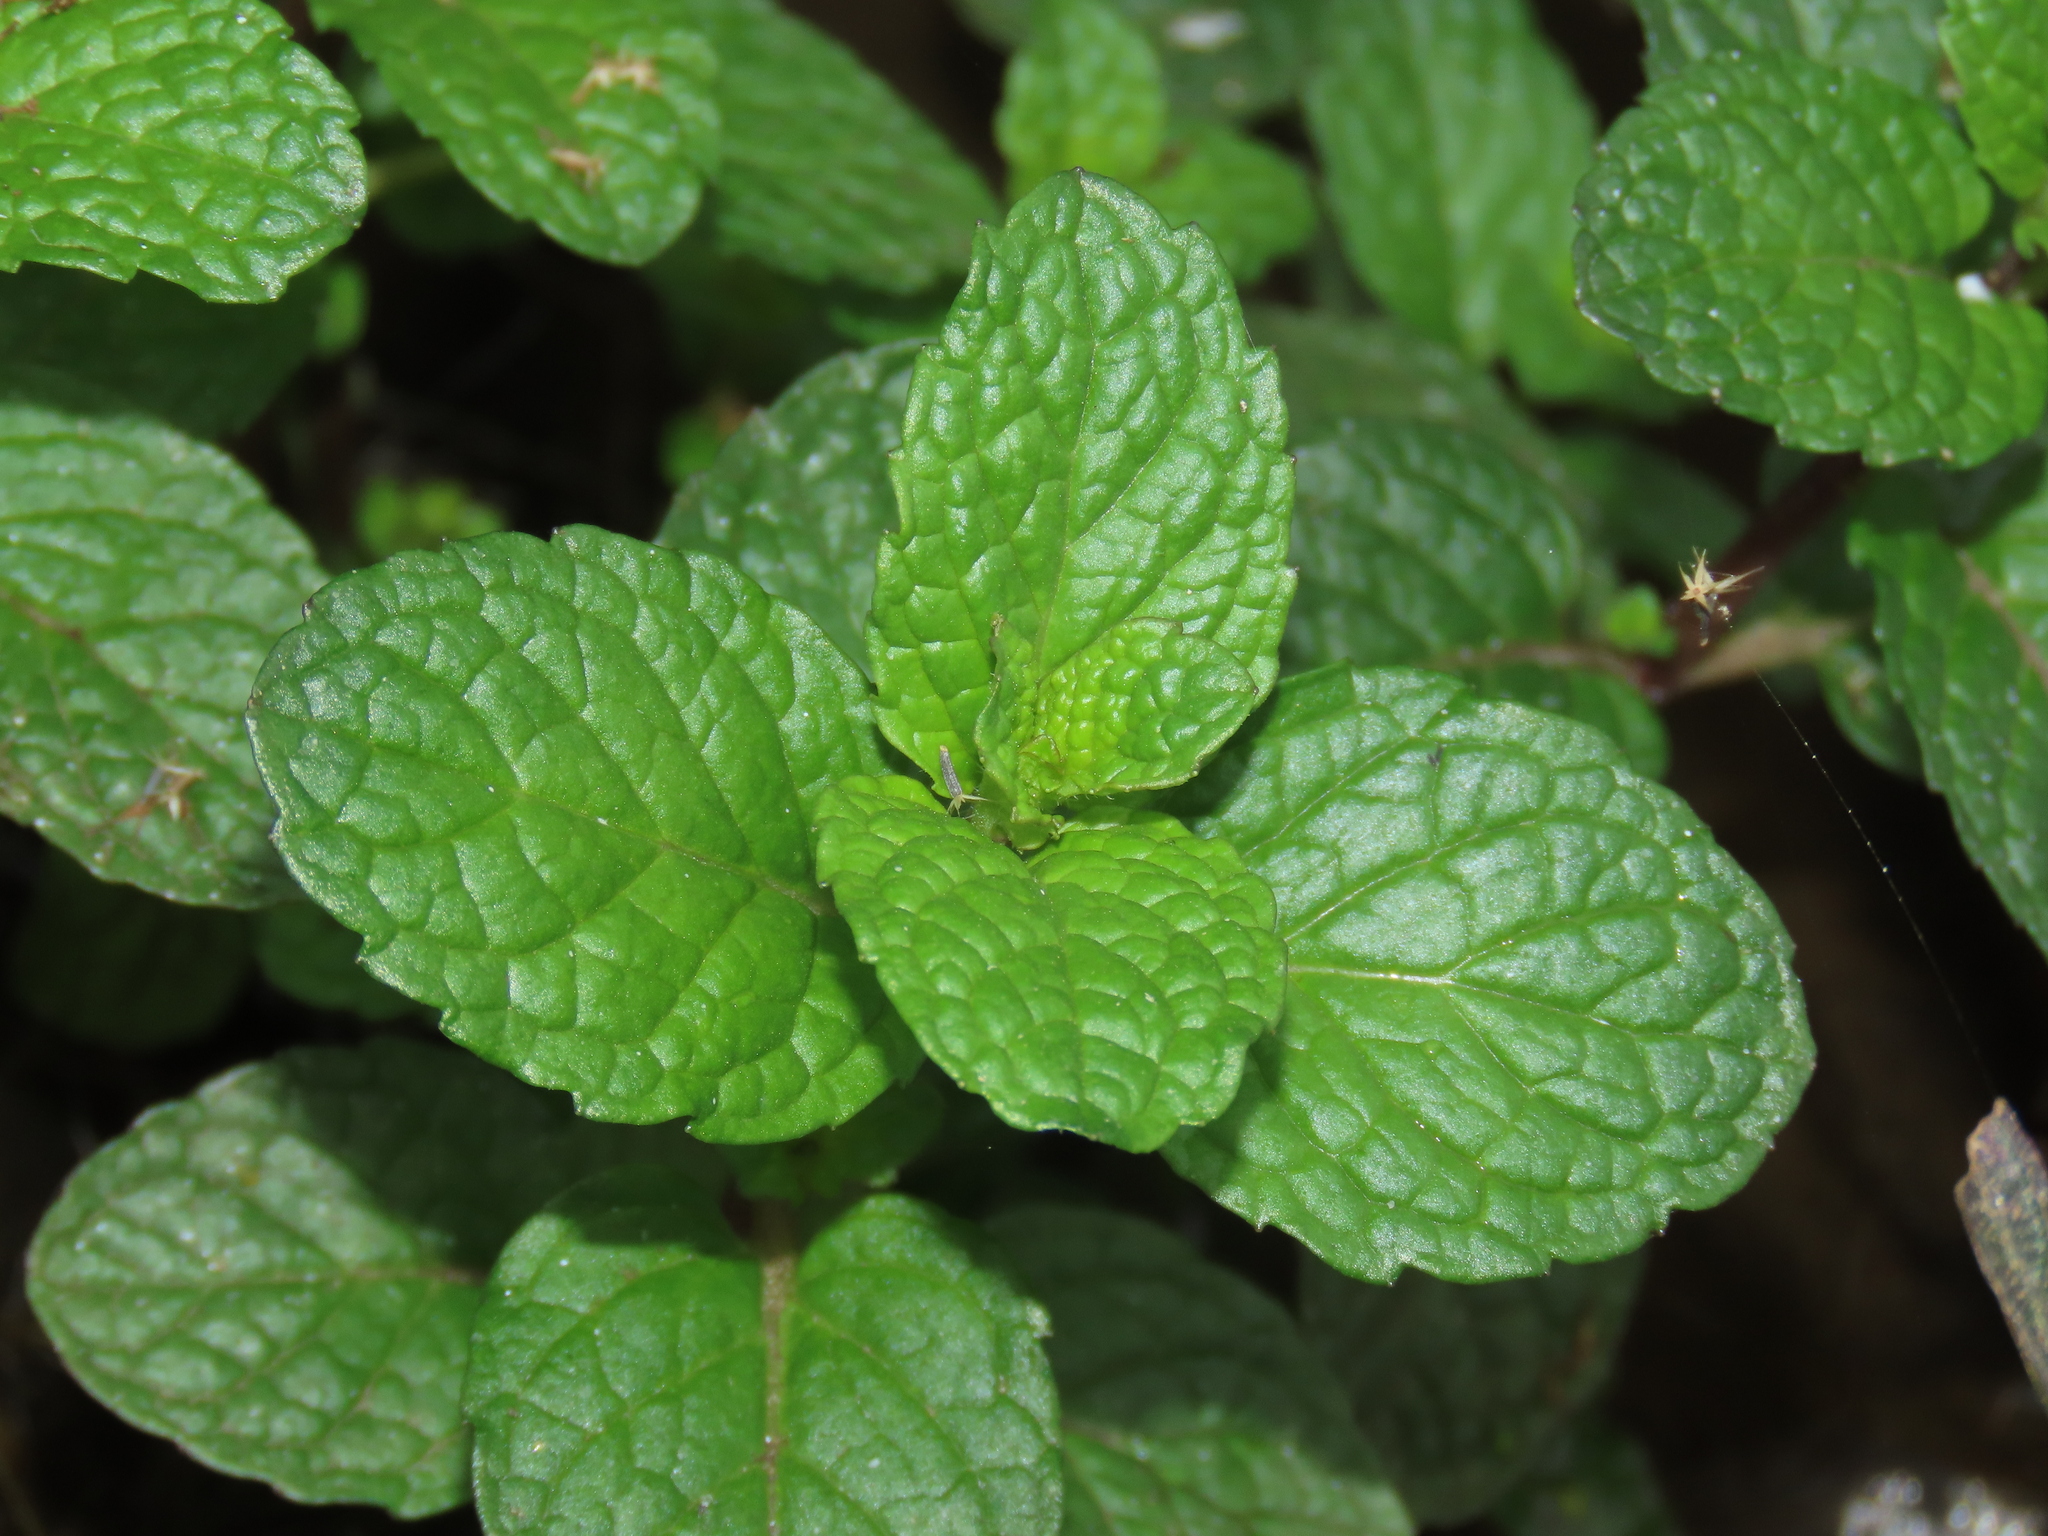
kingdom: Plantae
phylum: Tracheophyta
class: Magnoliopsida
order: Lamiales
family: Lamiaceae
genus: Mentha
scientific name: Mentha spicata
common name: Spearmint
